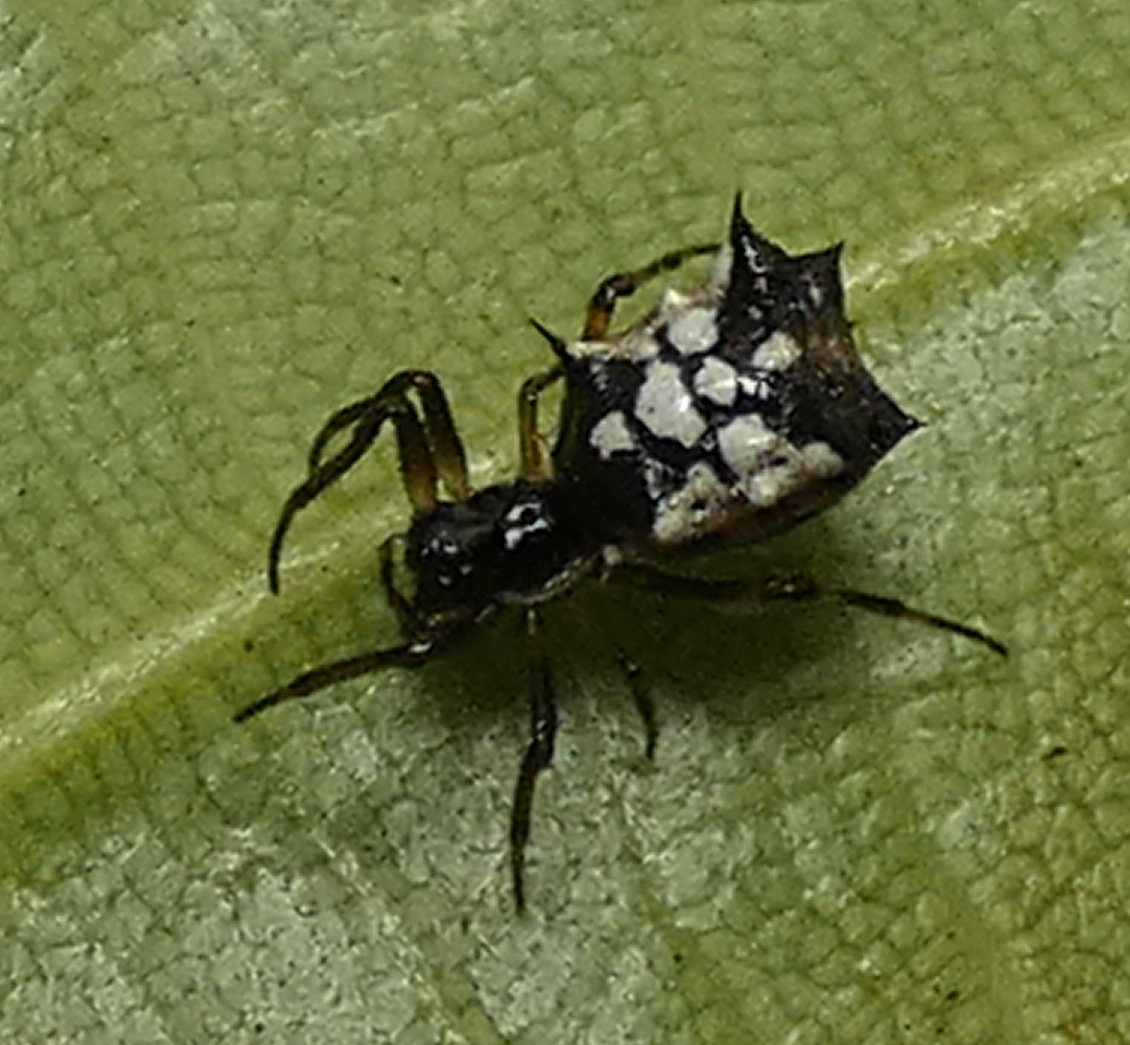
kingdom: Animalia
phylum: Arthropoda
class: Arachnida
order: Araneae
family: Araneidae
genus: Micrathena
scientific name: Micrathena picta
